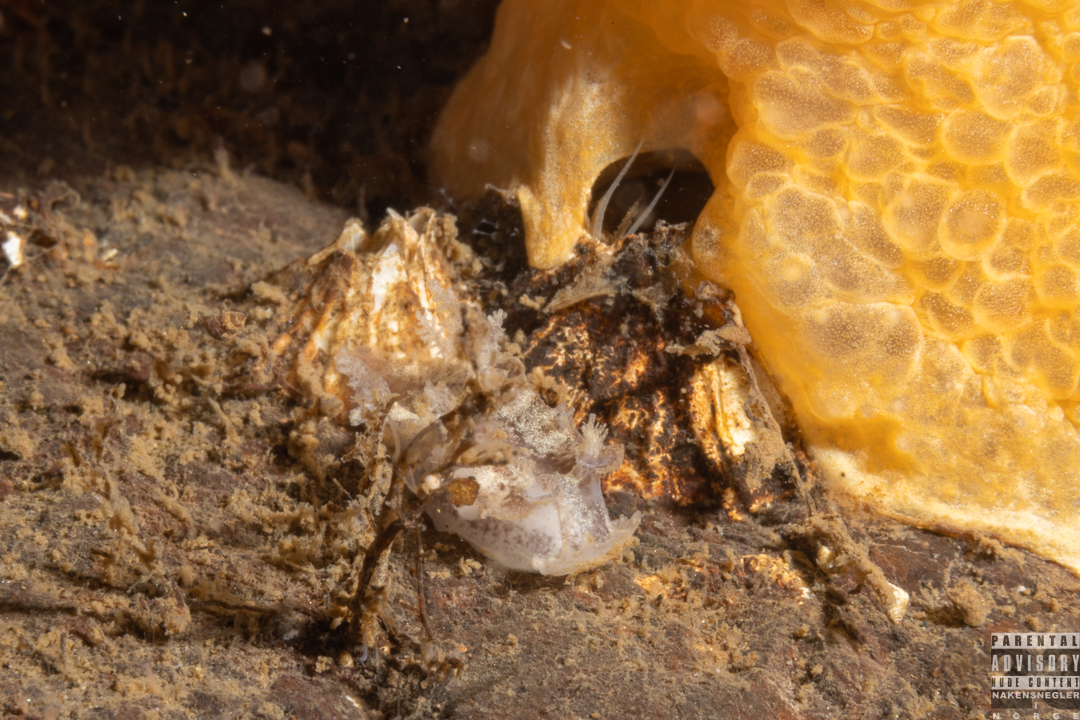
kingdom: Animalia
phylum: Mollusca
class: Gastropoda
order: Nudibranchia
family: Tritoniidae
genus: Duvaucelia
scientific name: Duvaucelia plebeia
